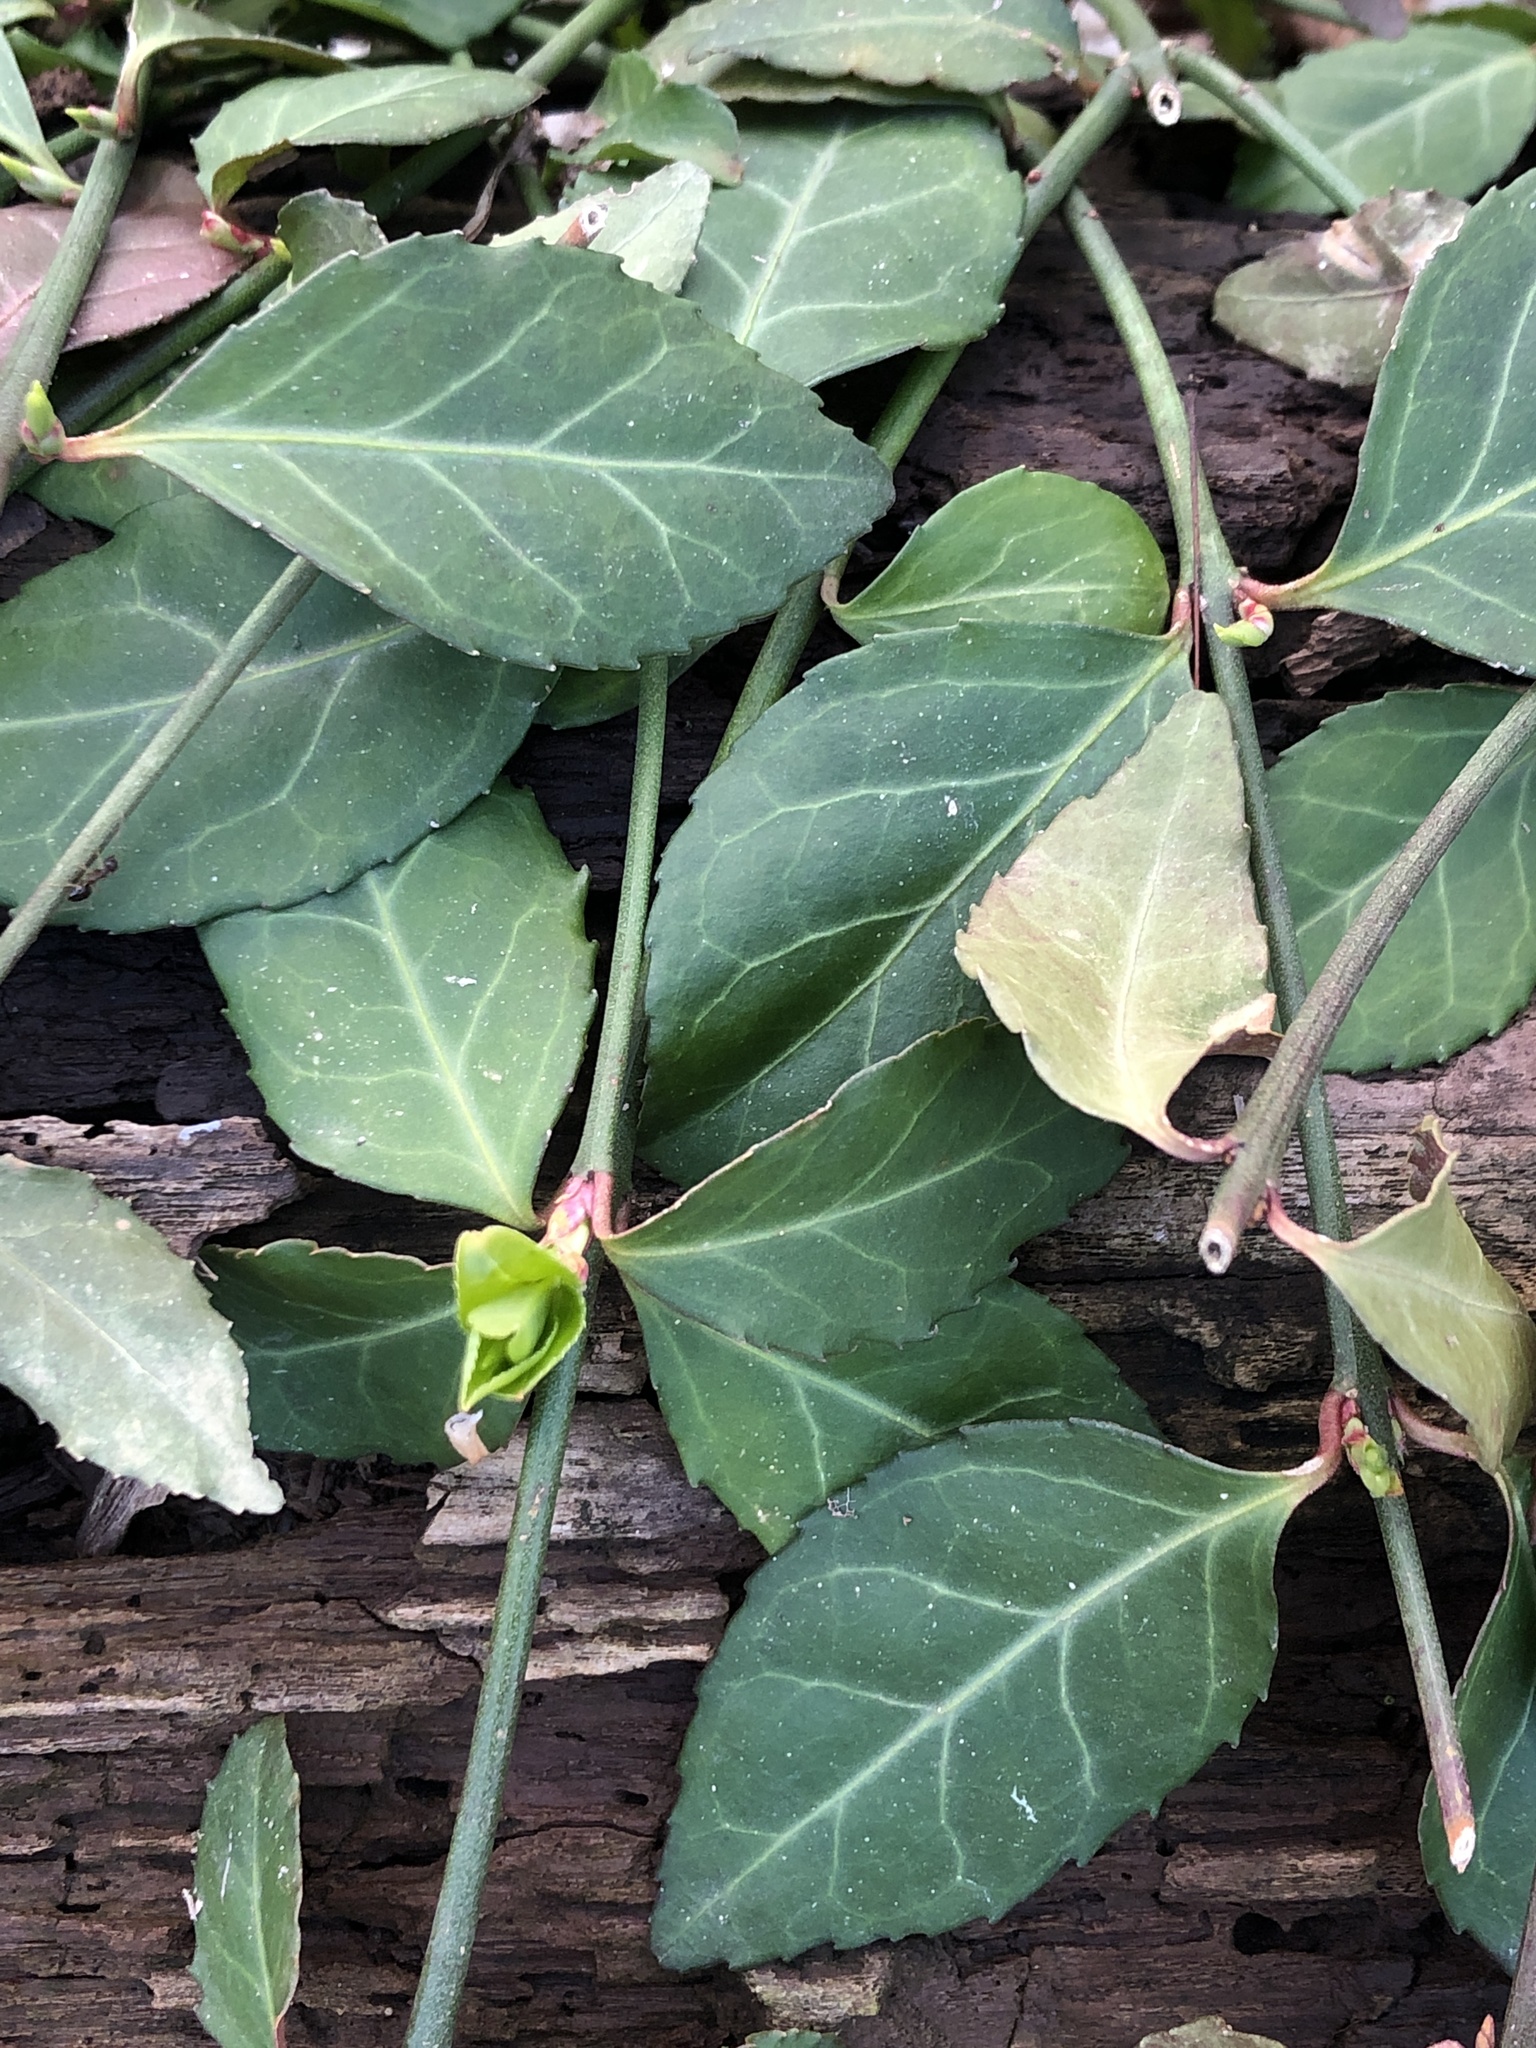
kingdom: Plantae
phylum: Tracheophyta
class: Magnoliopsida
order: Celastrales
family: Celastraceae
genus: Euonymus
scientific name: Euonymus fortunei
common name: Climbing euonymus
